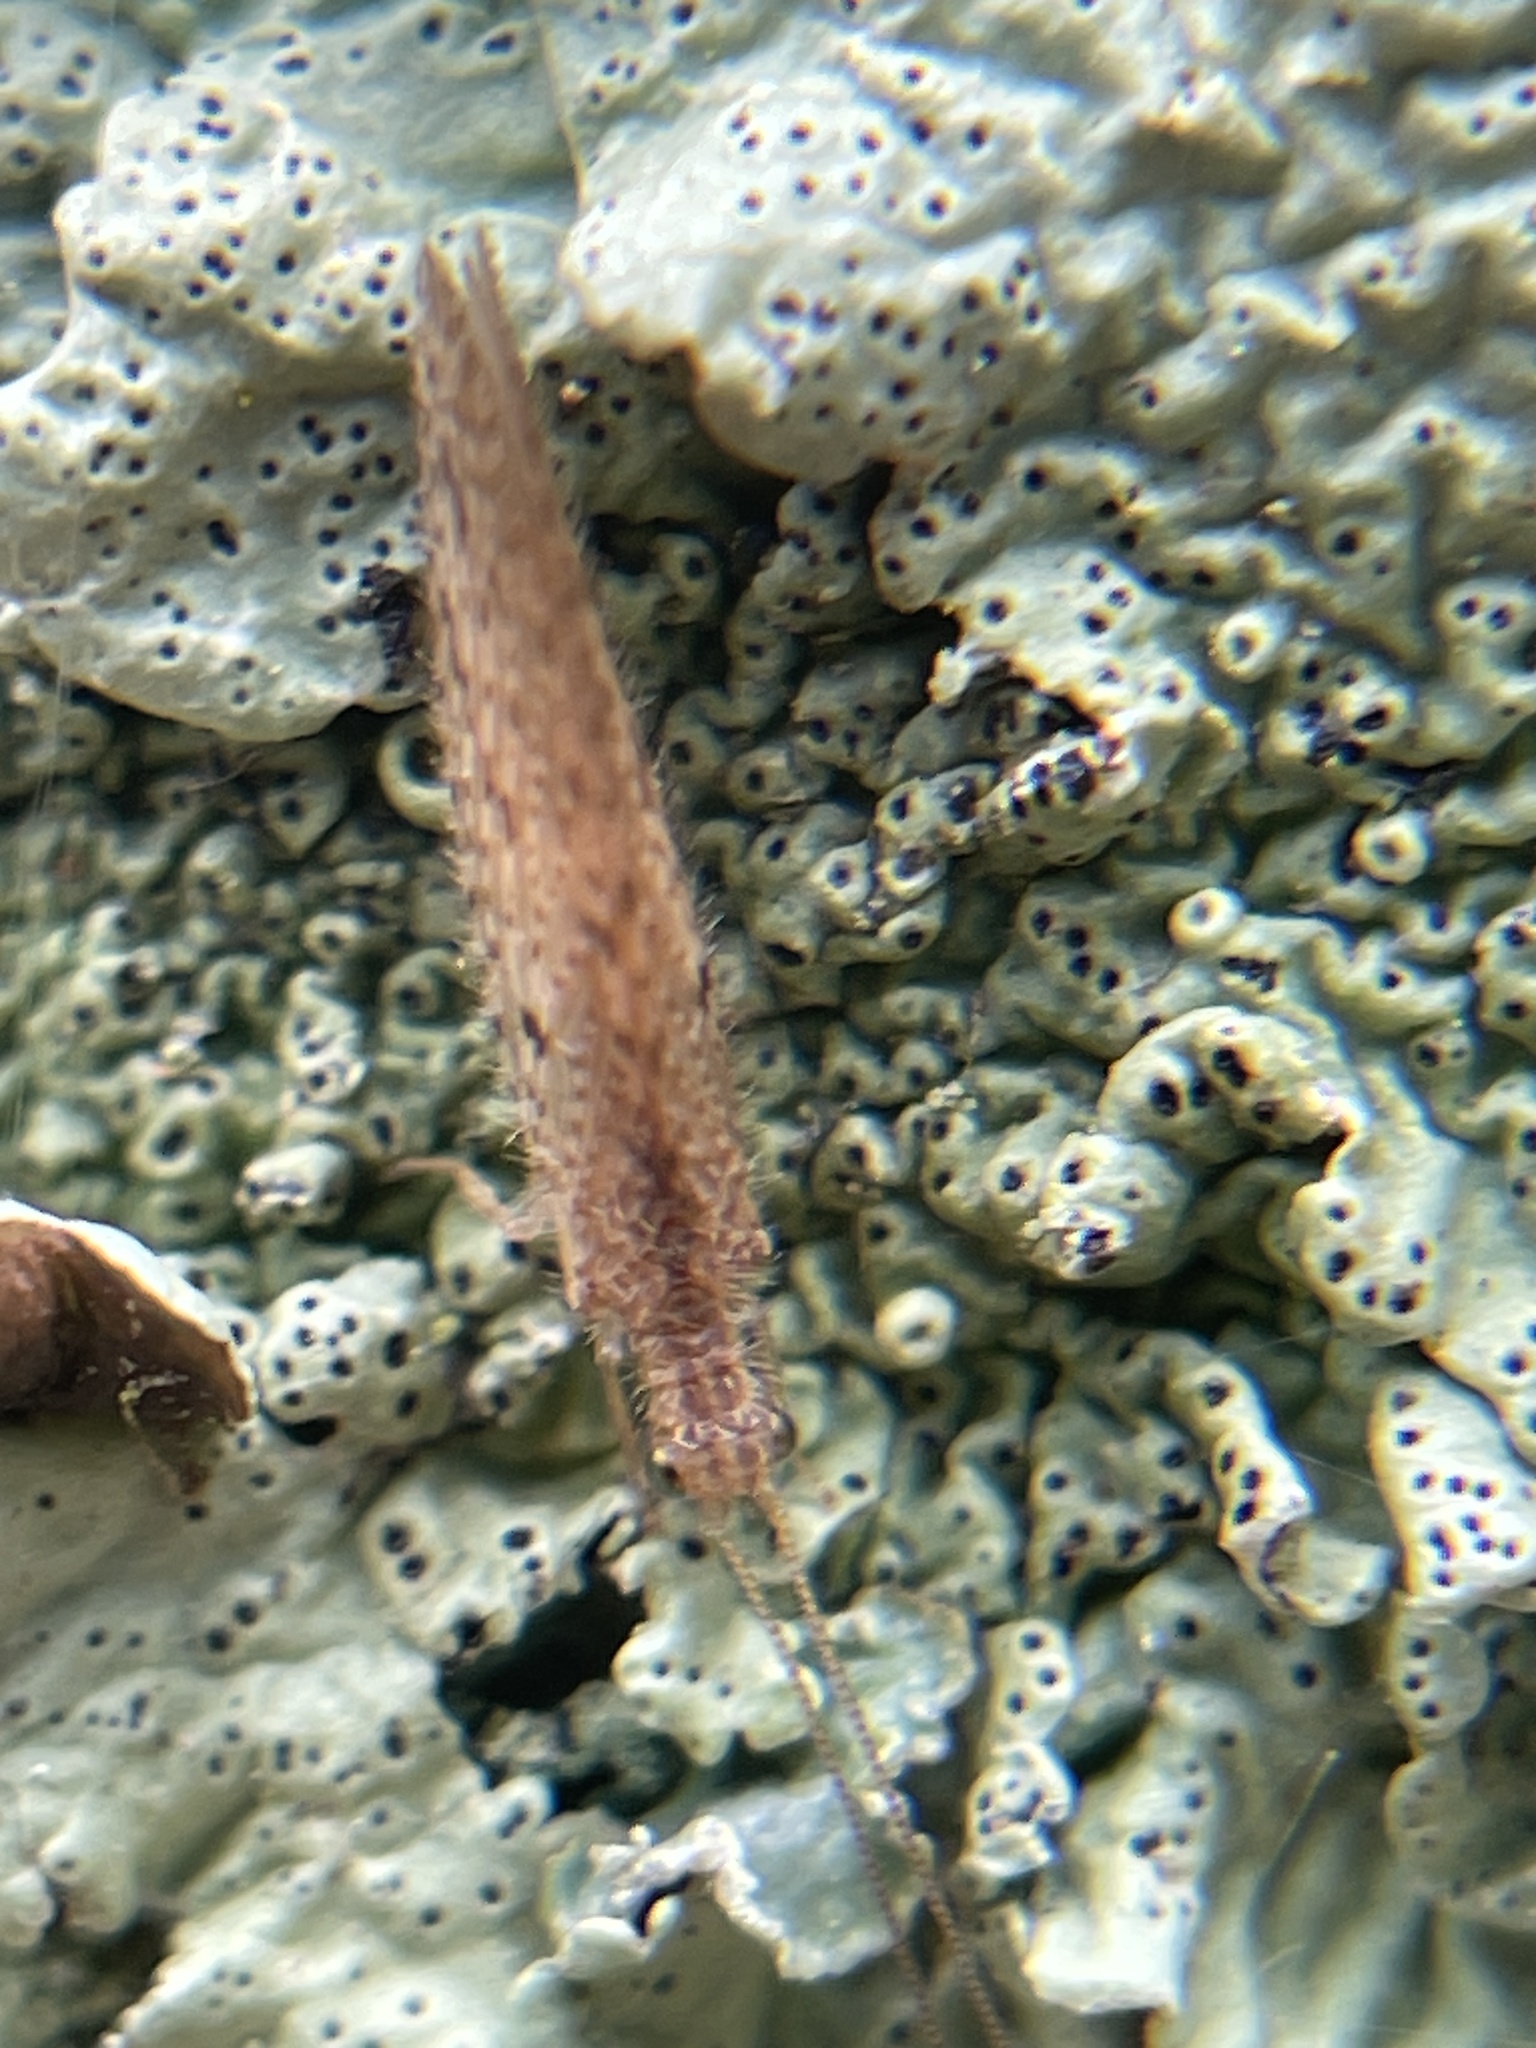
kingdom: Animalia
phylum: Arthropoda
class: Insecta
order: Neuroptera
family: Hemerobiidae
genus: Micromus
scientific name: Micromus tasmaniae
